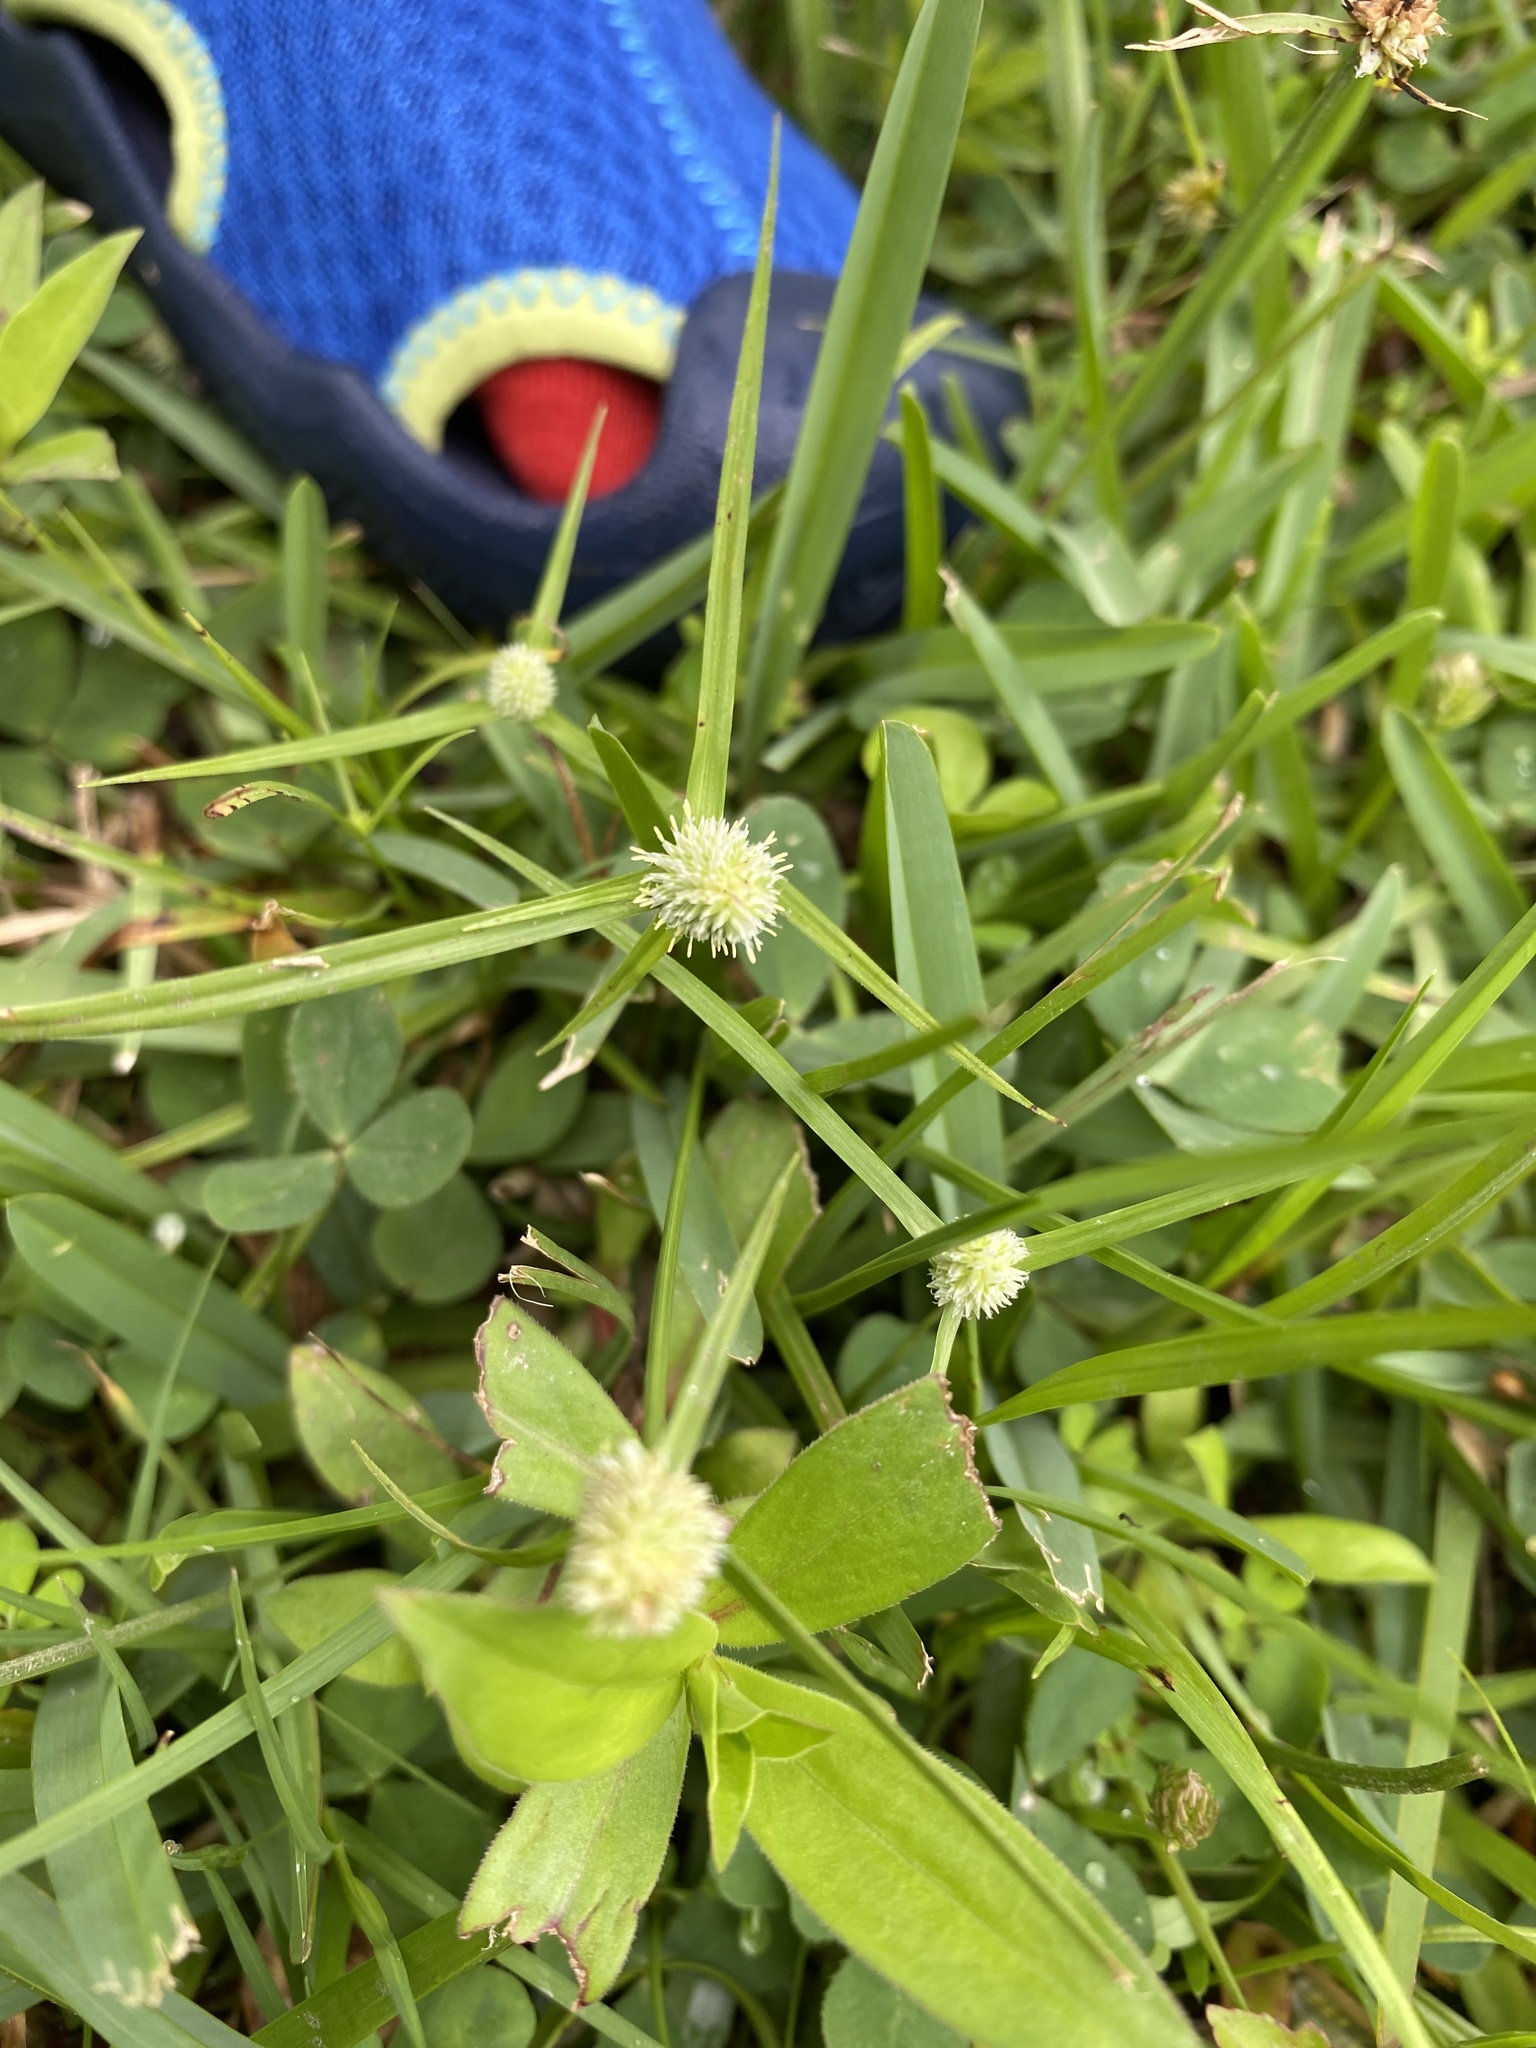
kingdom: Plantae
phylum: Tracheophyta
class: Liliopsida
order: Poales
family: Cyperaceae
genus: Cyperus
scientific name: Cyperus brevifolius
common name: Globe kyllinga
